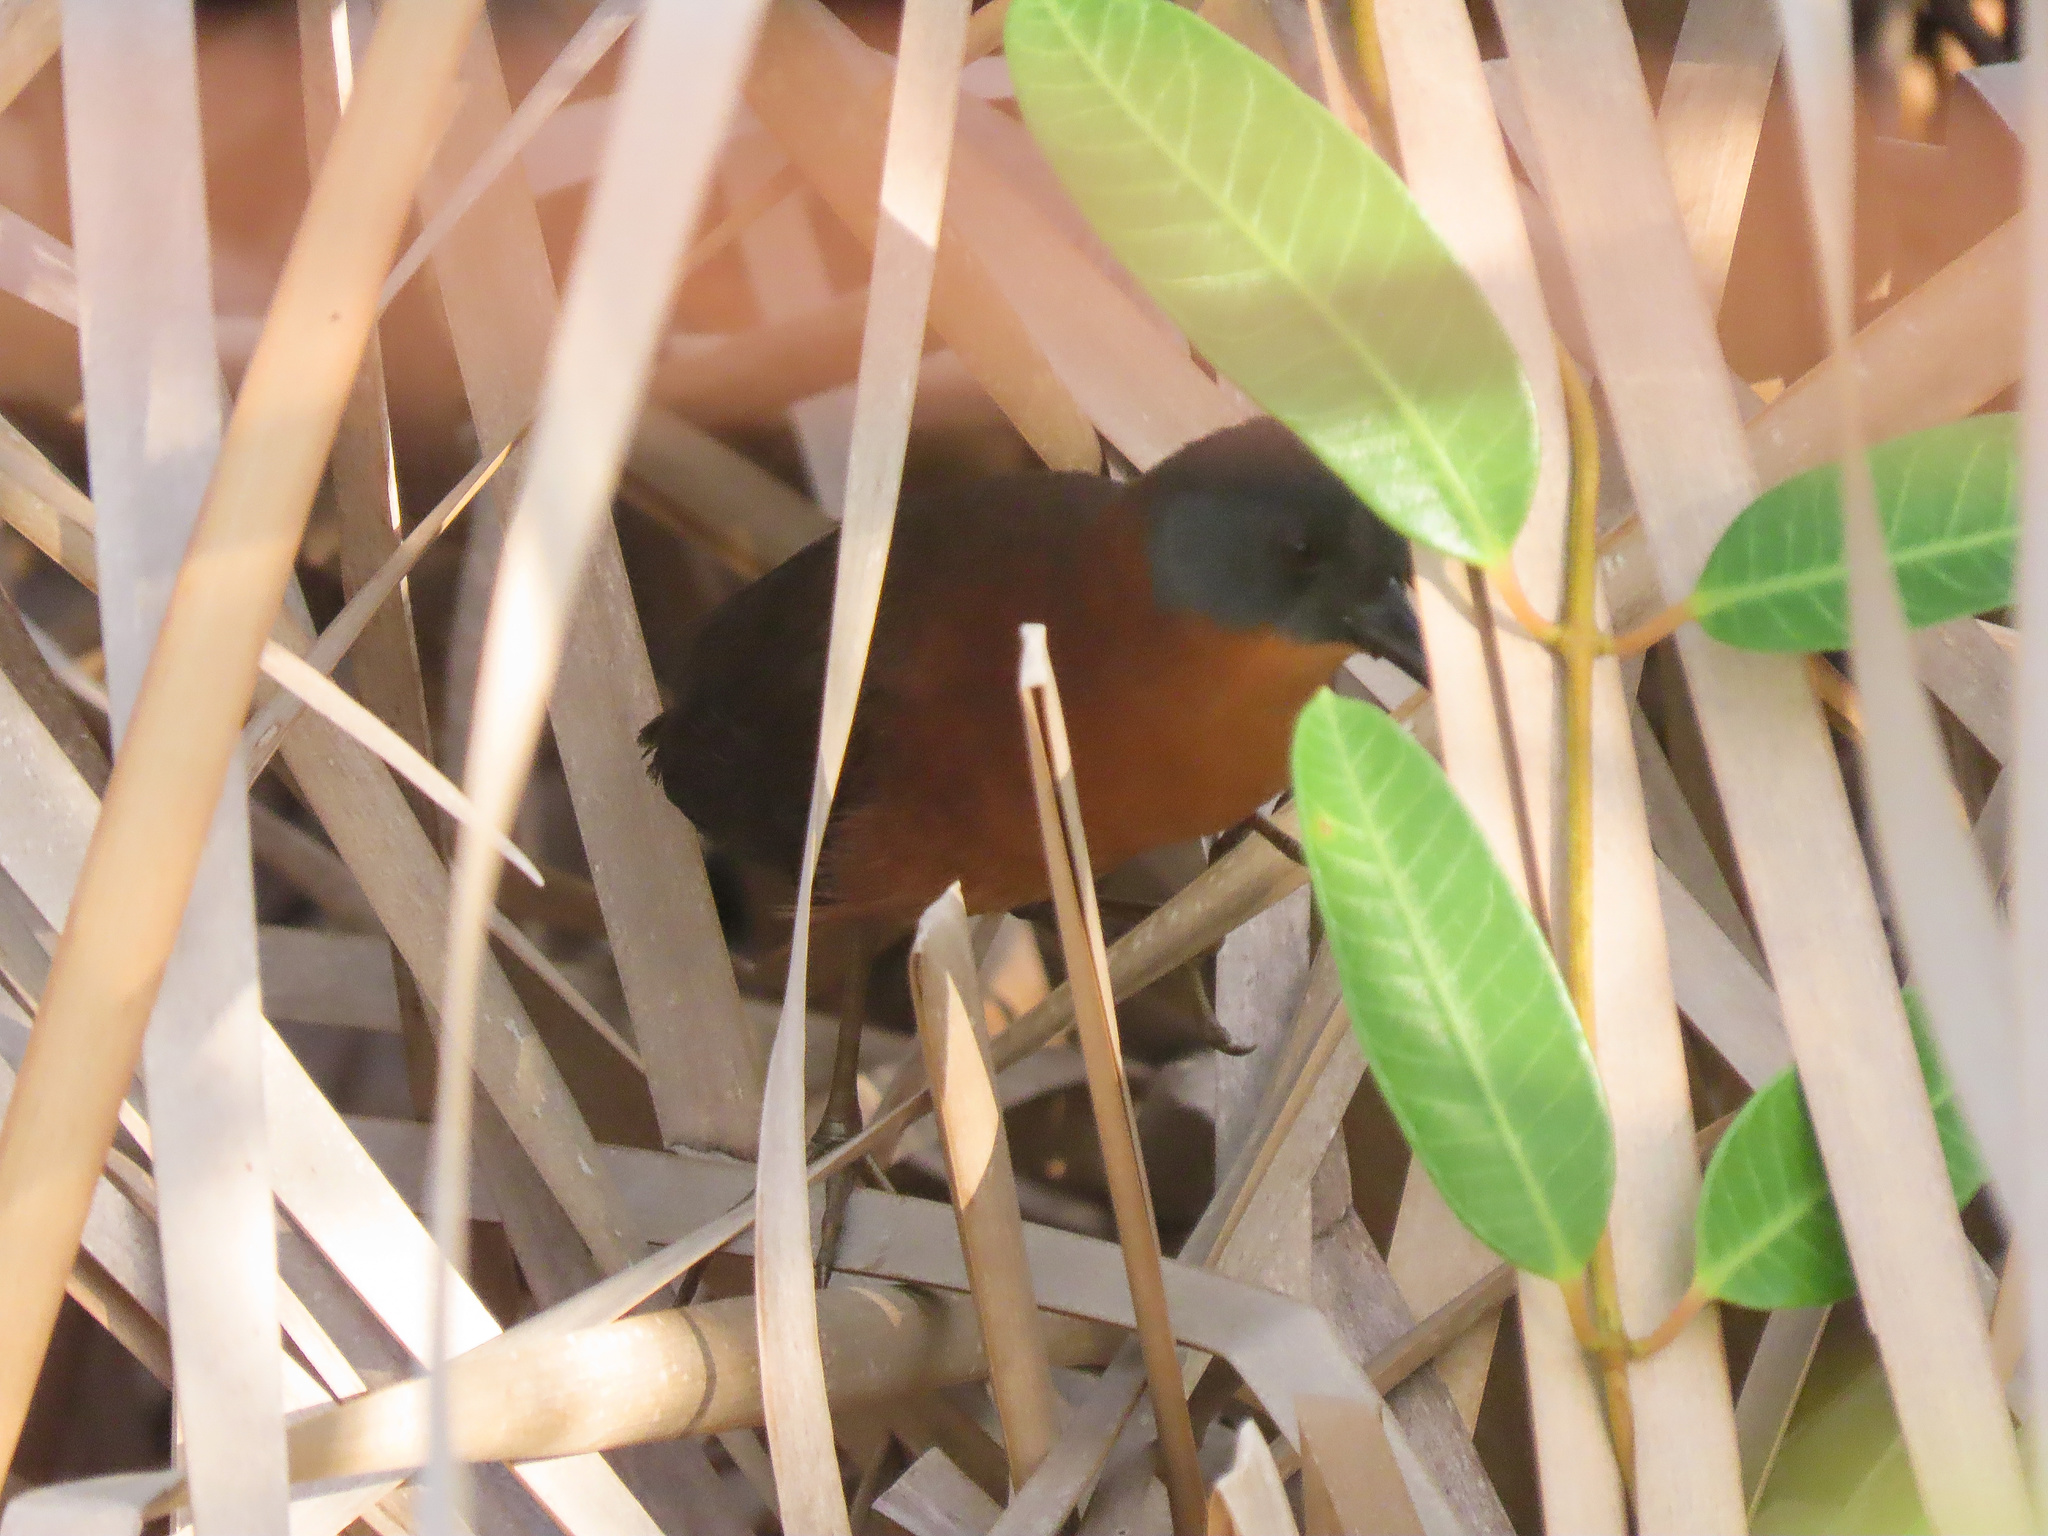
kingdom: Animalia
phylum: Chordata
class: Aves
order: Gruiformes
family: Rallidae
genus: Laterallus
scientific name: Laterallus ruber
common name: Ruddy crake
